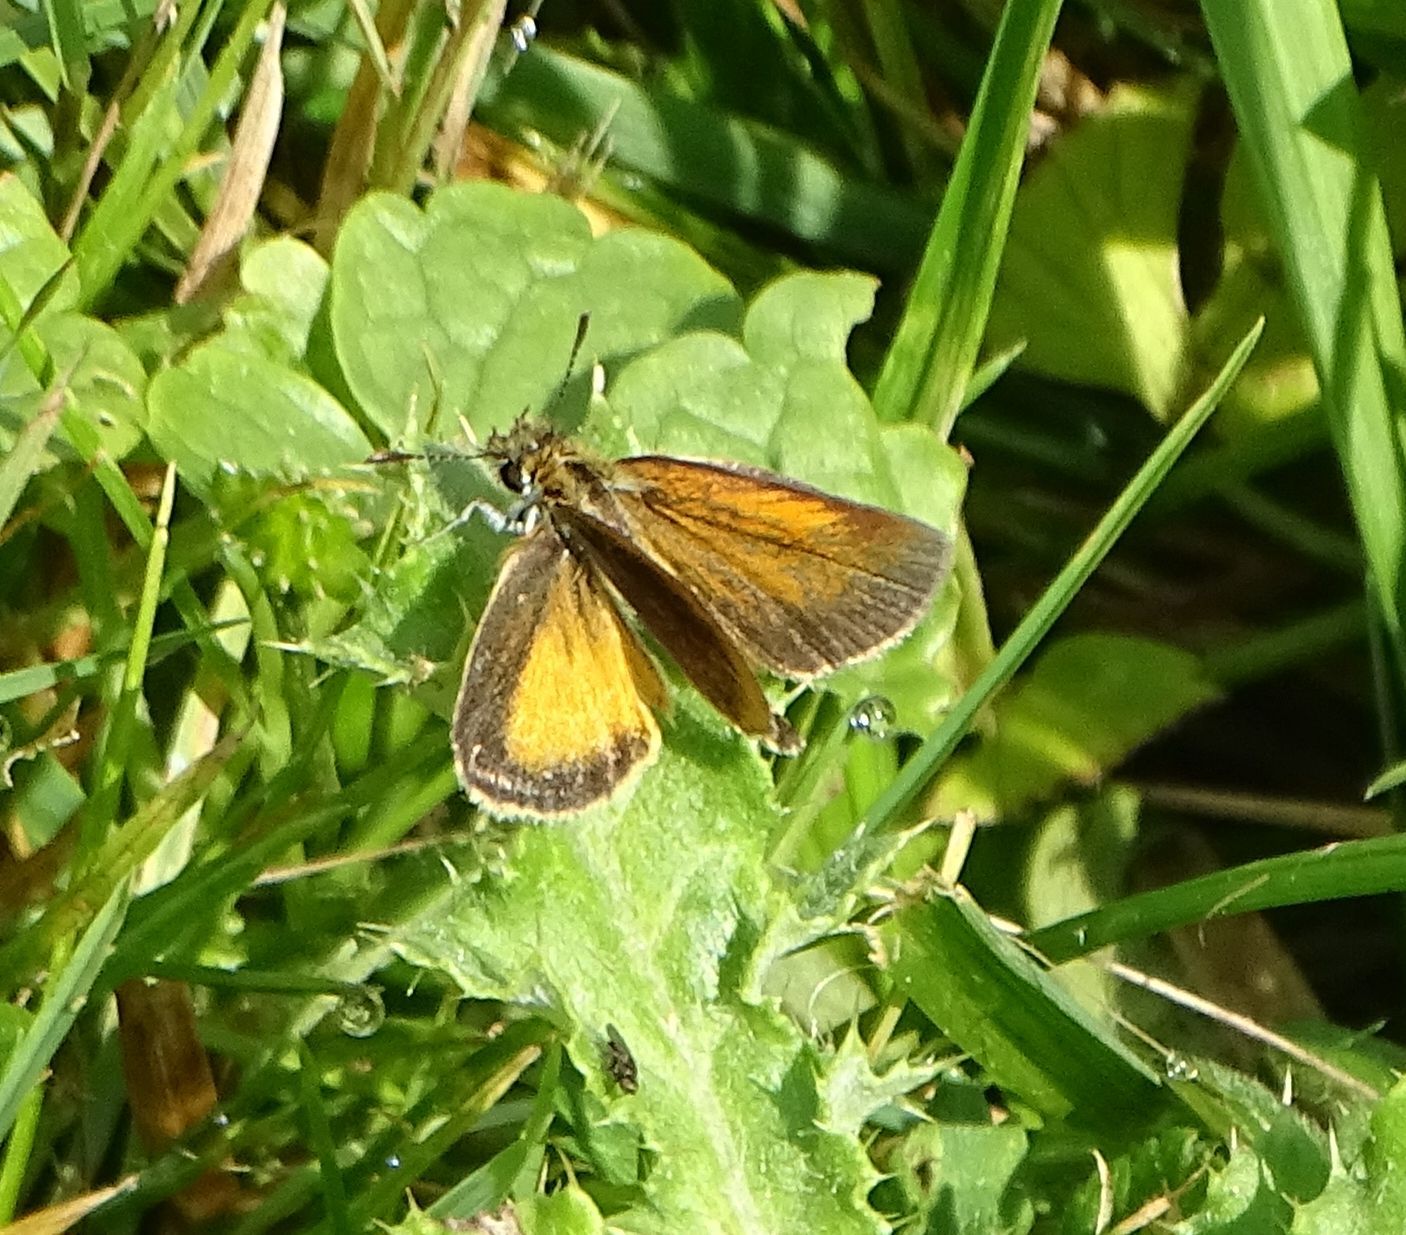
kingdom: Animalia
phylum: Arthropoda
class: Insecta
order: Lepidoptera
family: Hesperiidae
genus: Ancyloxypha
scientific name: Ancyloxypha numitor
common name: Least skipper
